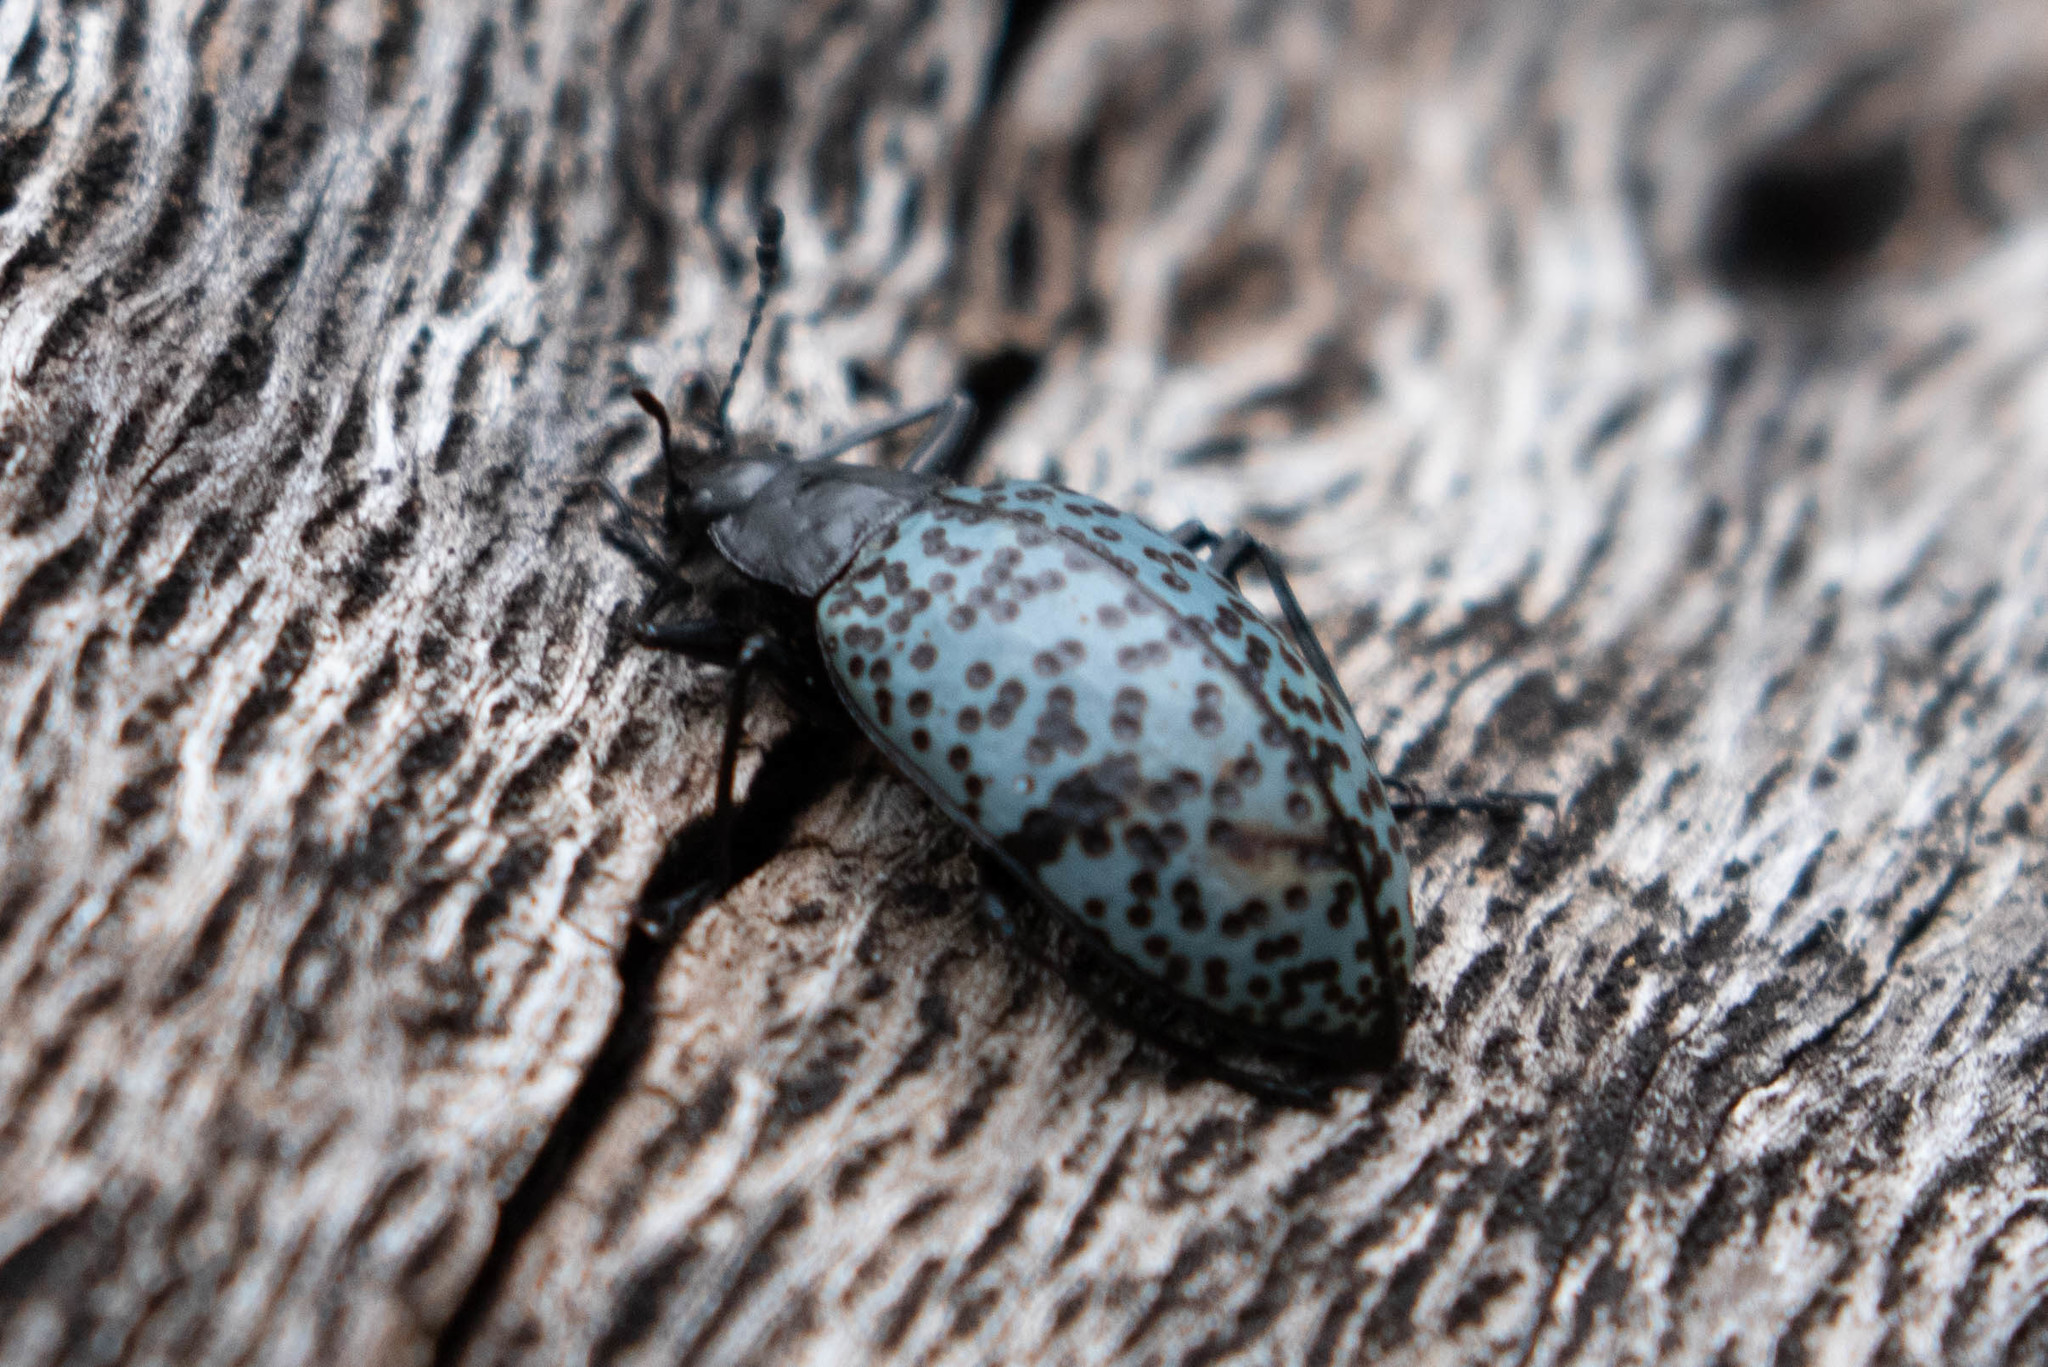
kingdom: Animalia
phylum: Arthropoda
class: Insecta
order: Coleoptera
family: Erotylidae
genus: Gibbifer
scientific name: Gibbifer californicus
